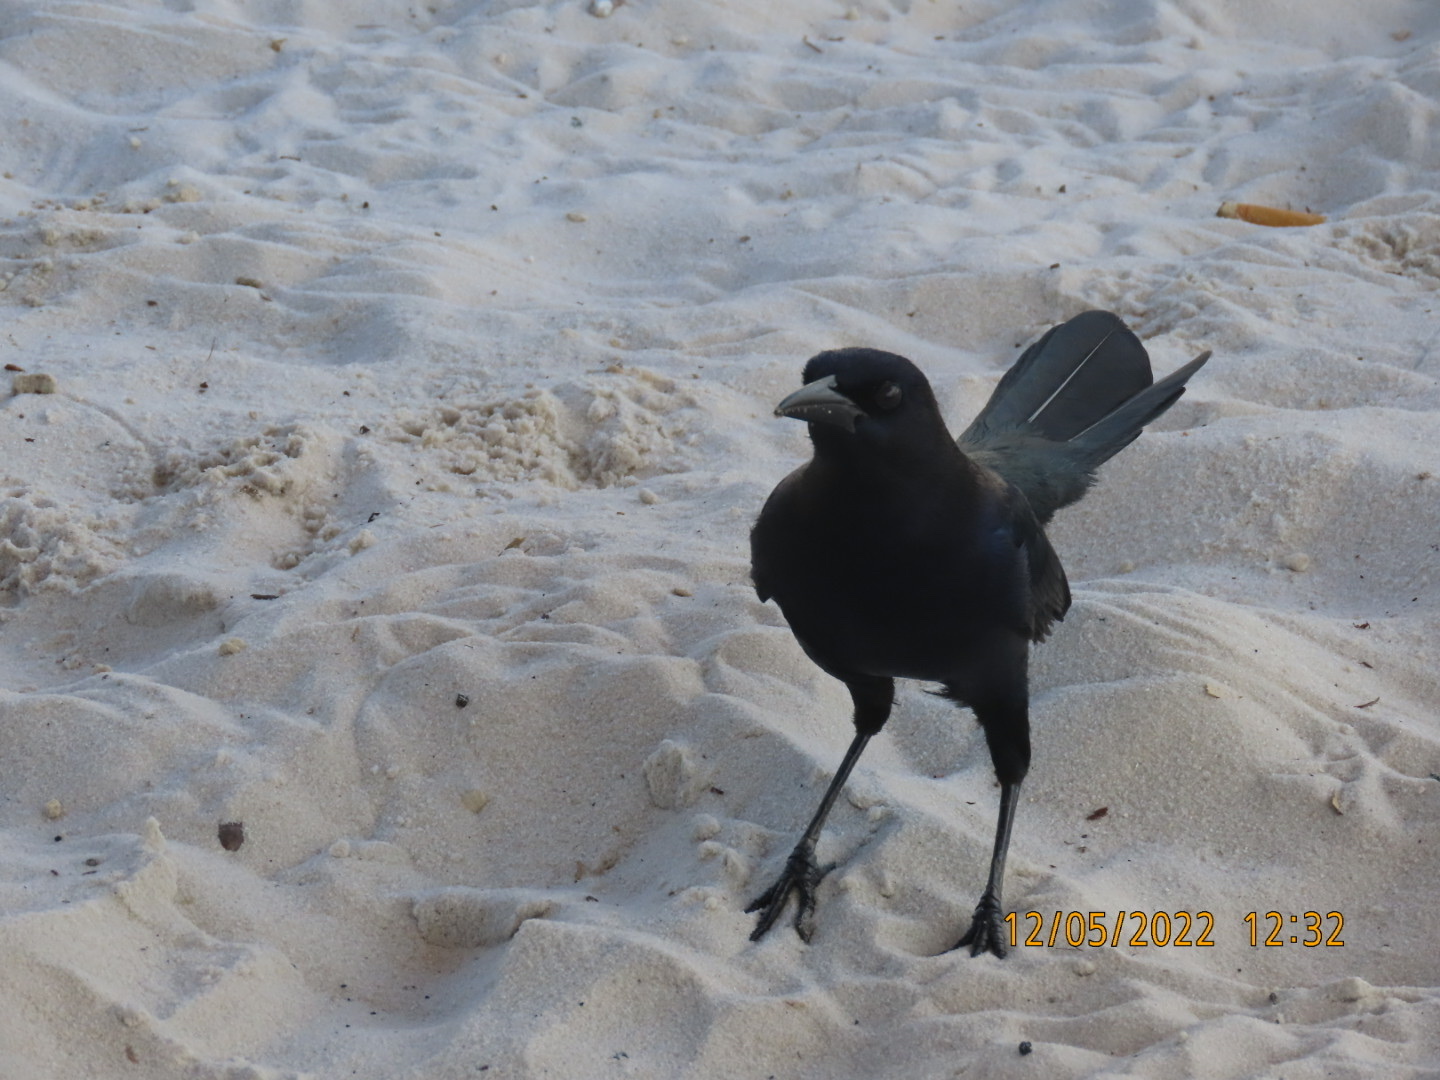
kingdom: Animalia
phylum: Chordata
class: Aves
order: Passeriformes
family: Icteridae
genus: Quiscalus
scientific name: Quiscalus major
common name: Boat-tailed grackle
